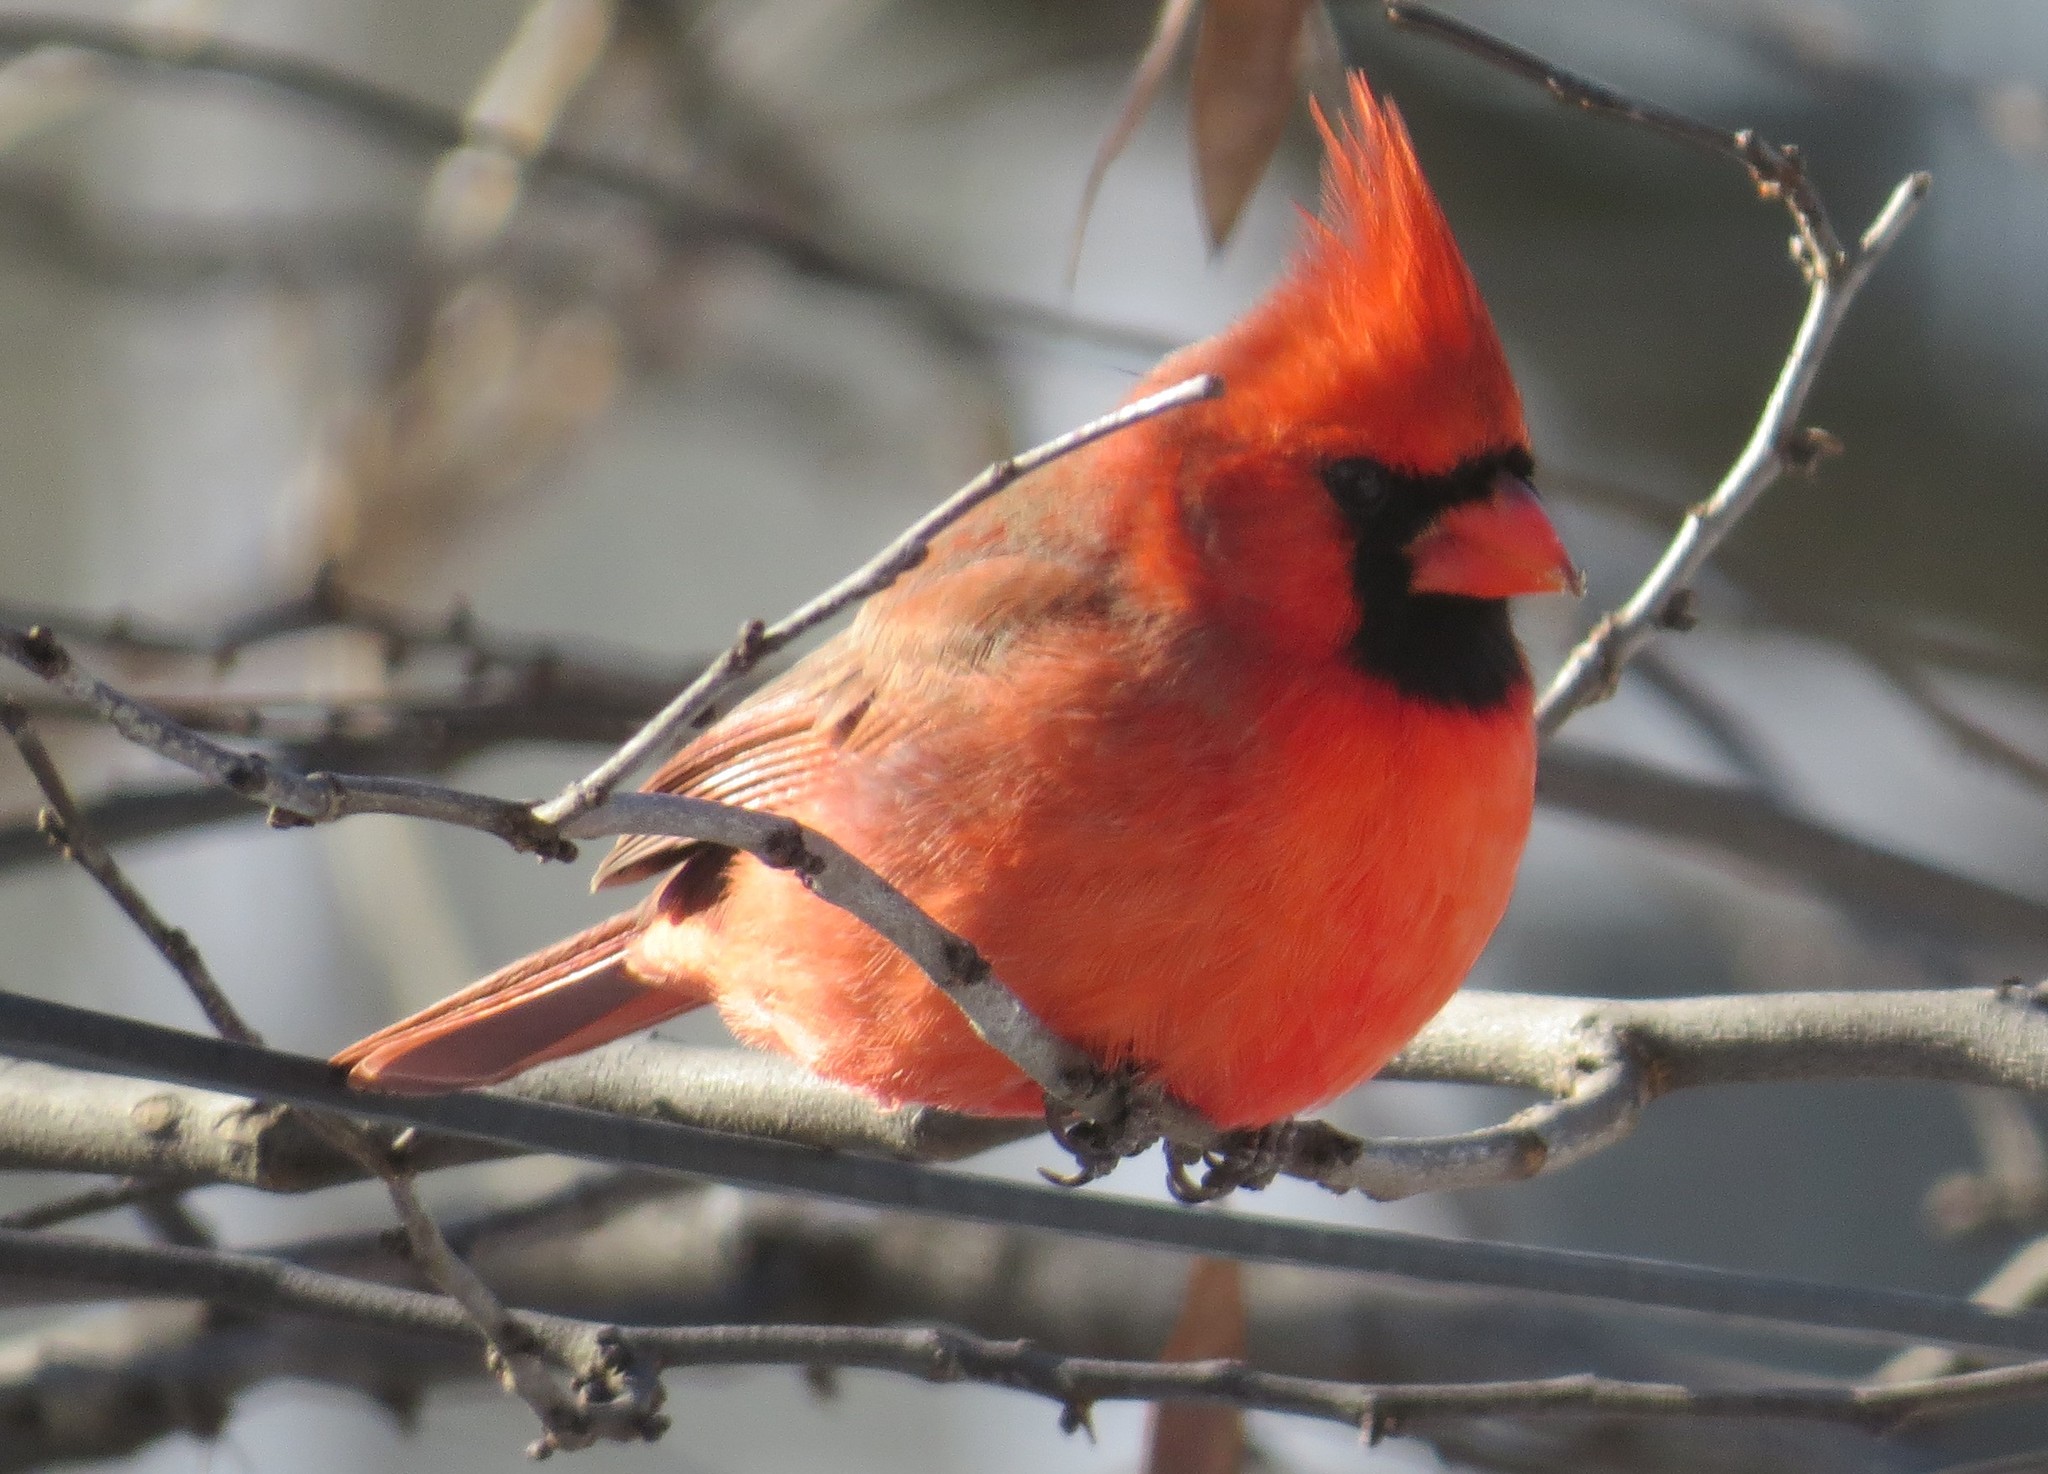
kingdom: Animalia
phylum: Chordata
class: Aves
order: Passeriformes
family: Cardinalidae
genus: Cardinalis
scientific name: Cardinalis cardinalis
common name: Northern cardinal
